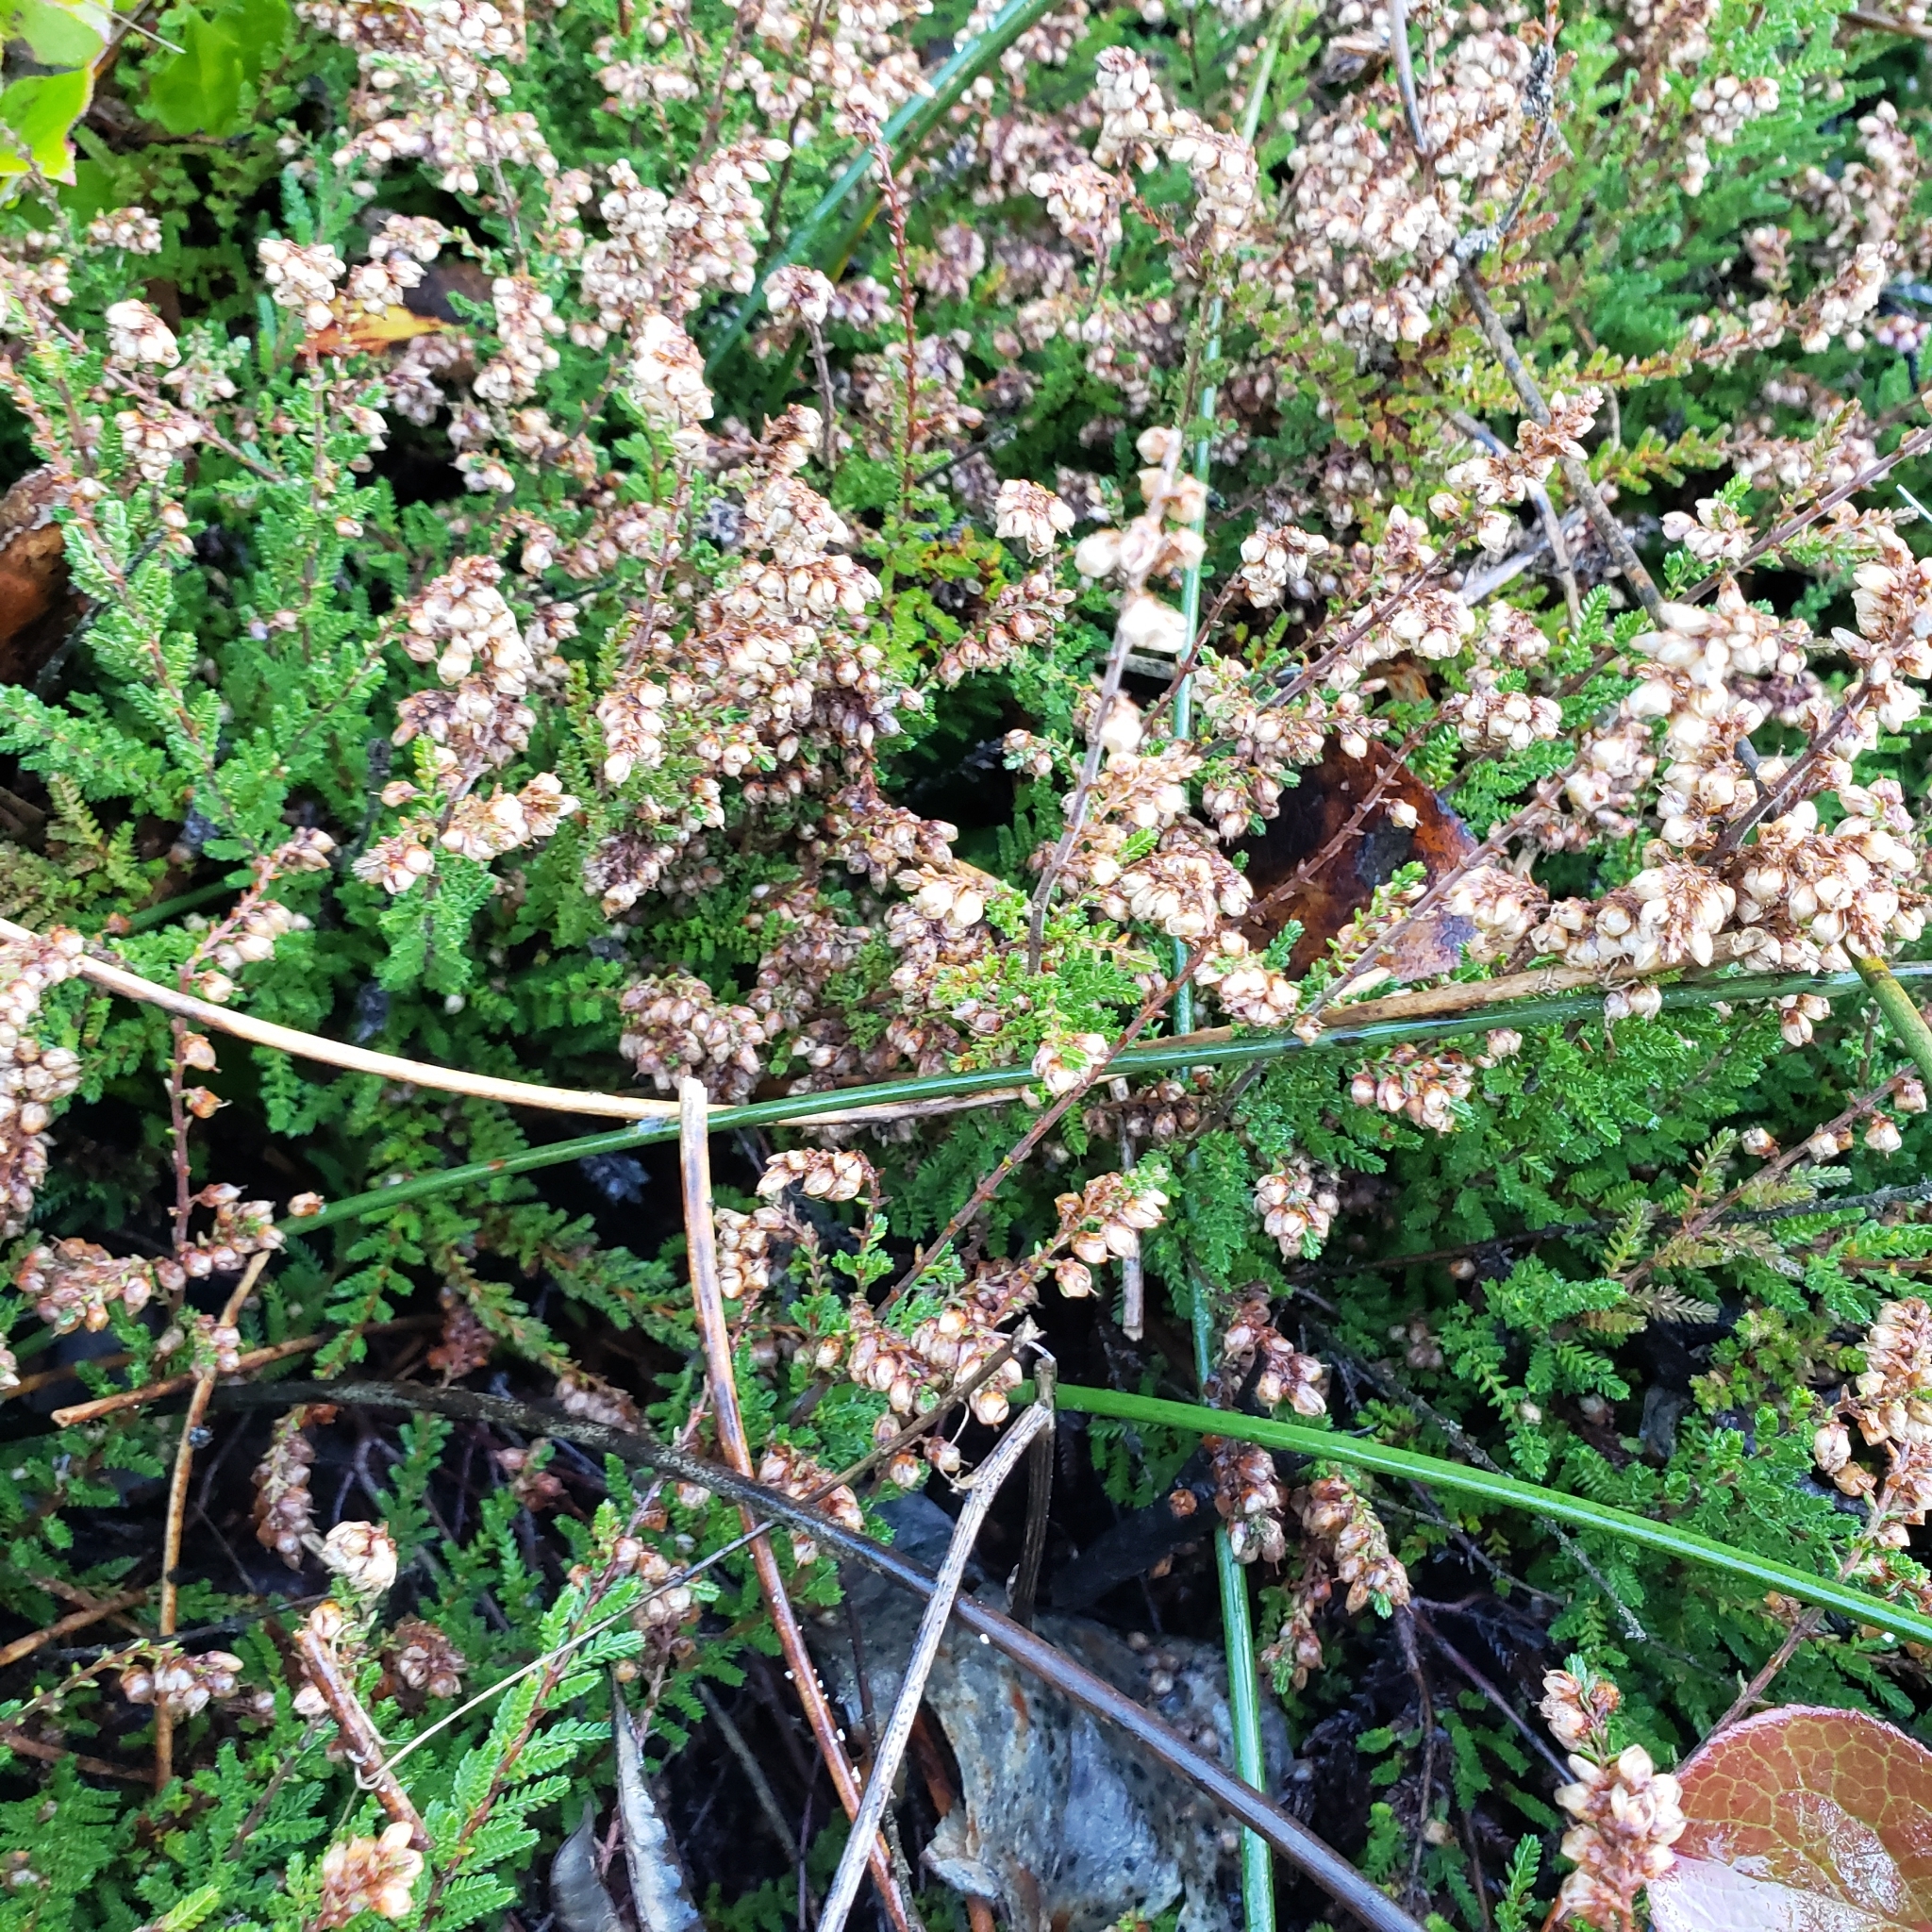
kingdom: Plantae
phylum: Tracheophyta
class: Magnoliopsida
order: Ericales
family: Ericaceae
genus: Calluna
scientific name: Calluna vulgaris
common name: Heather
